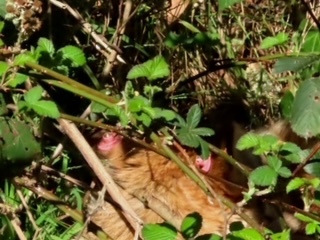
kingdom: Animalia
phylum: Chordata
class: Mammalia
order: Carnivora
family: Canidae
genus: Canis
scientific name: Canis latrans
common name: Coyote
